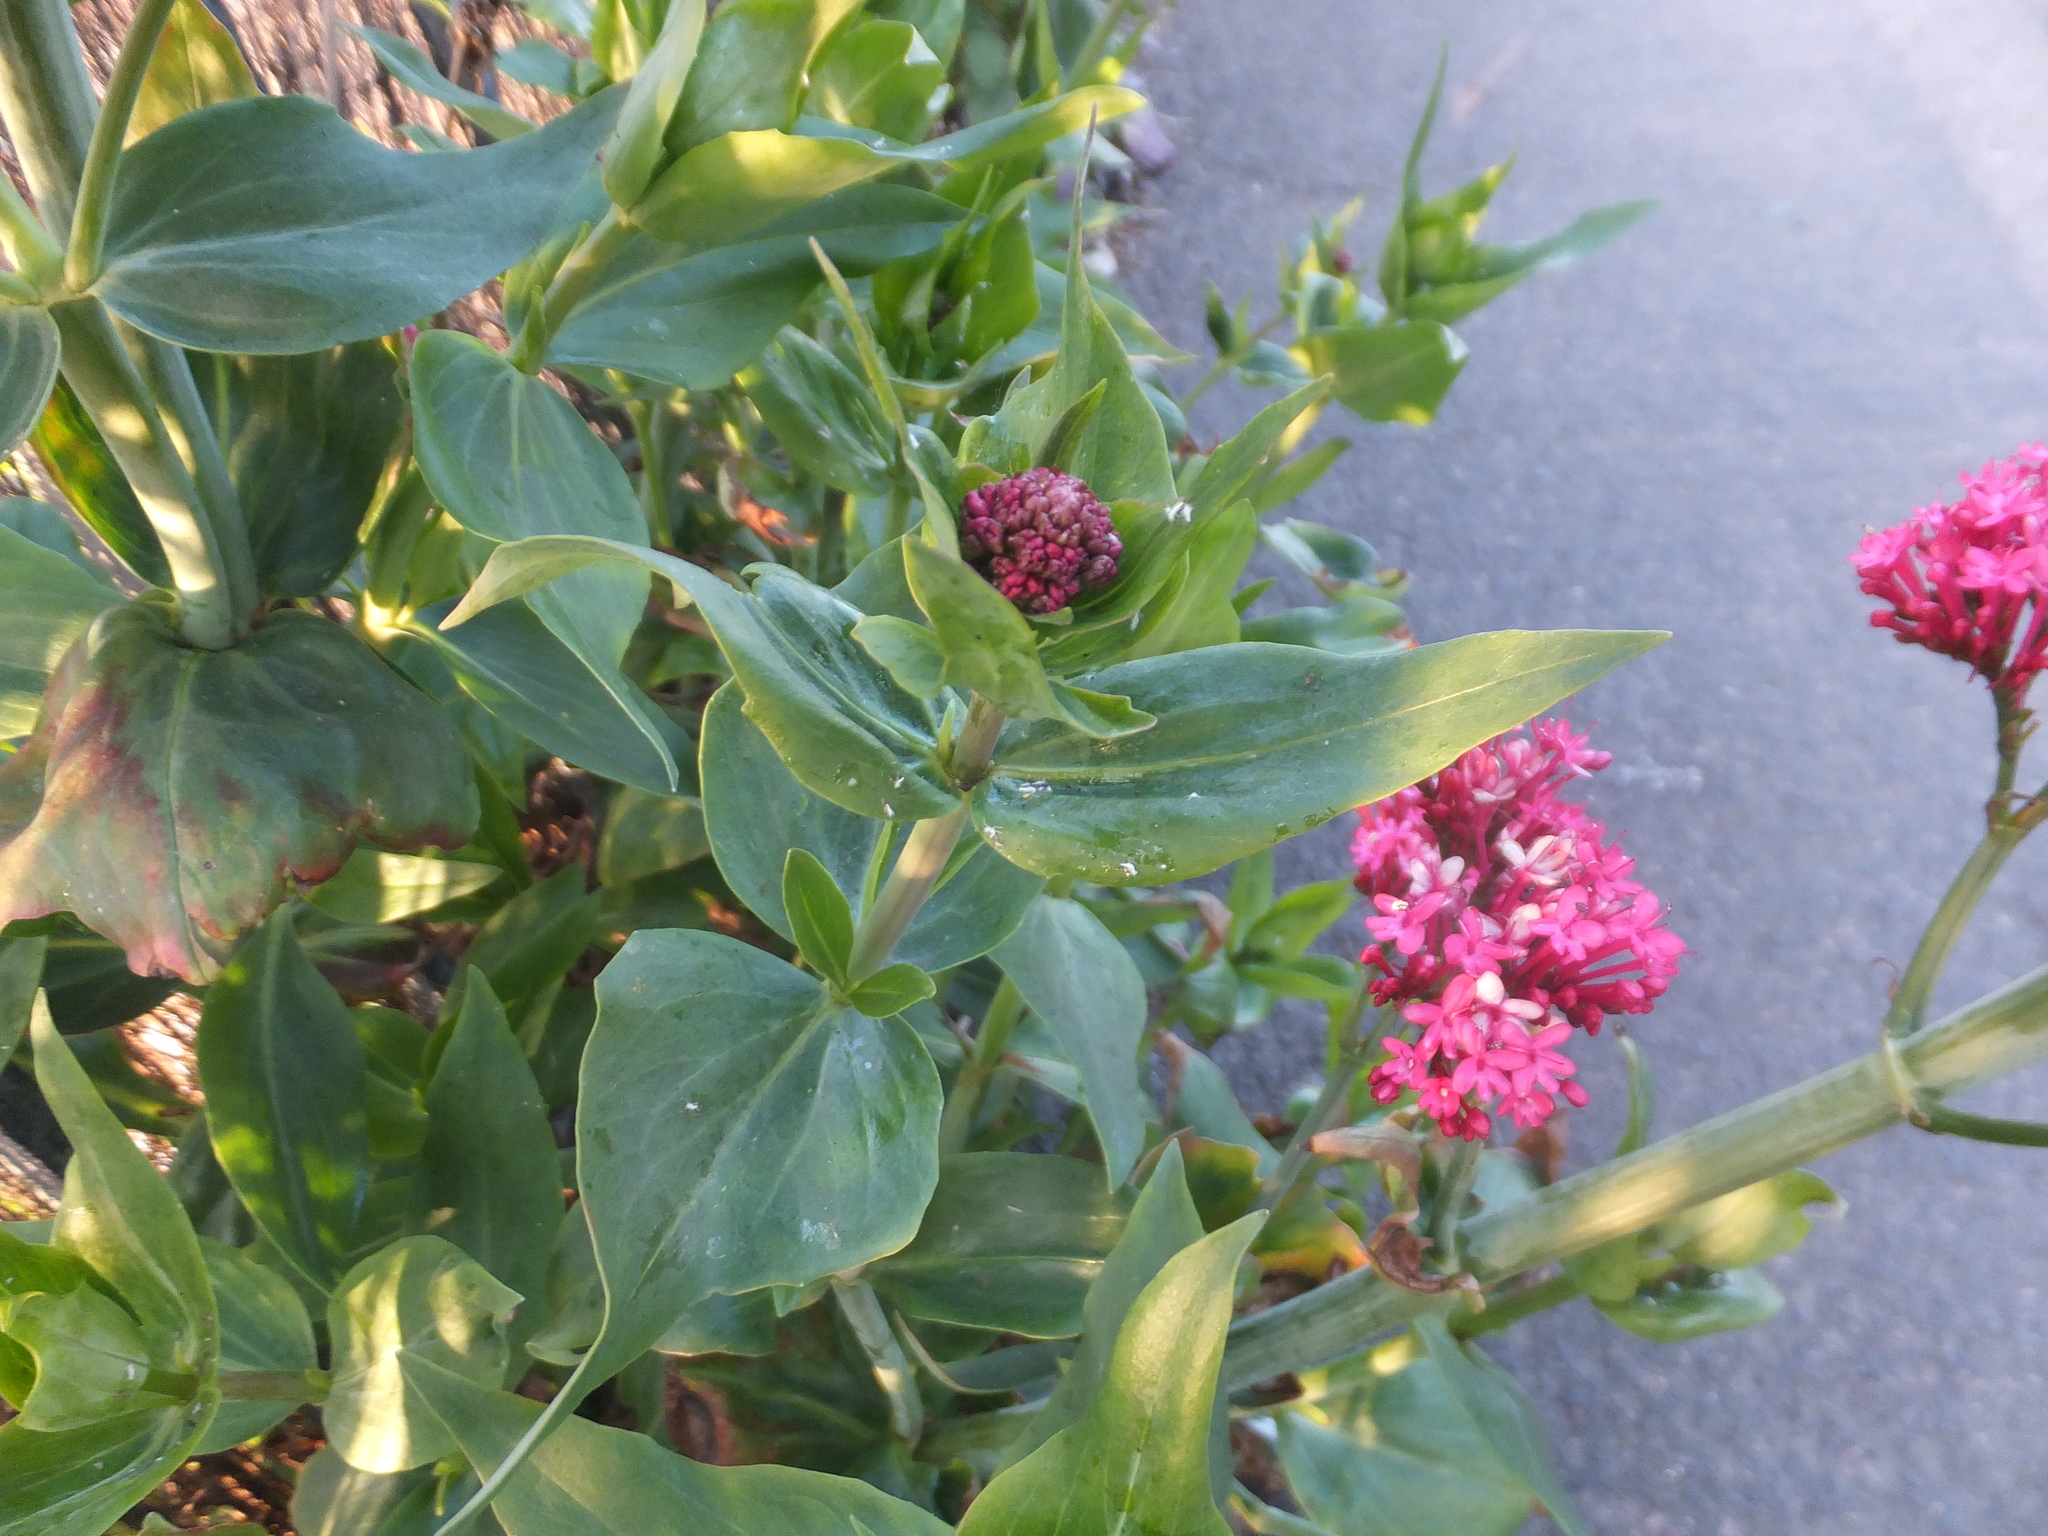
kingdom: Plantae
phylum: Tracheophyta
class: Magnoliopsida
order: Dipsacales
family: Caprifoliaceae
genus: Centranthus
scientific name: Centranthus ruber
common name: Red valerian
